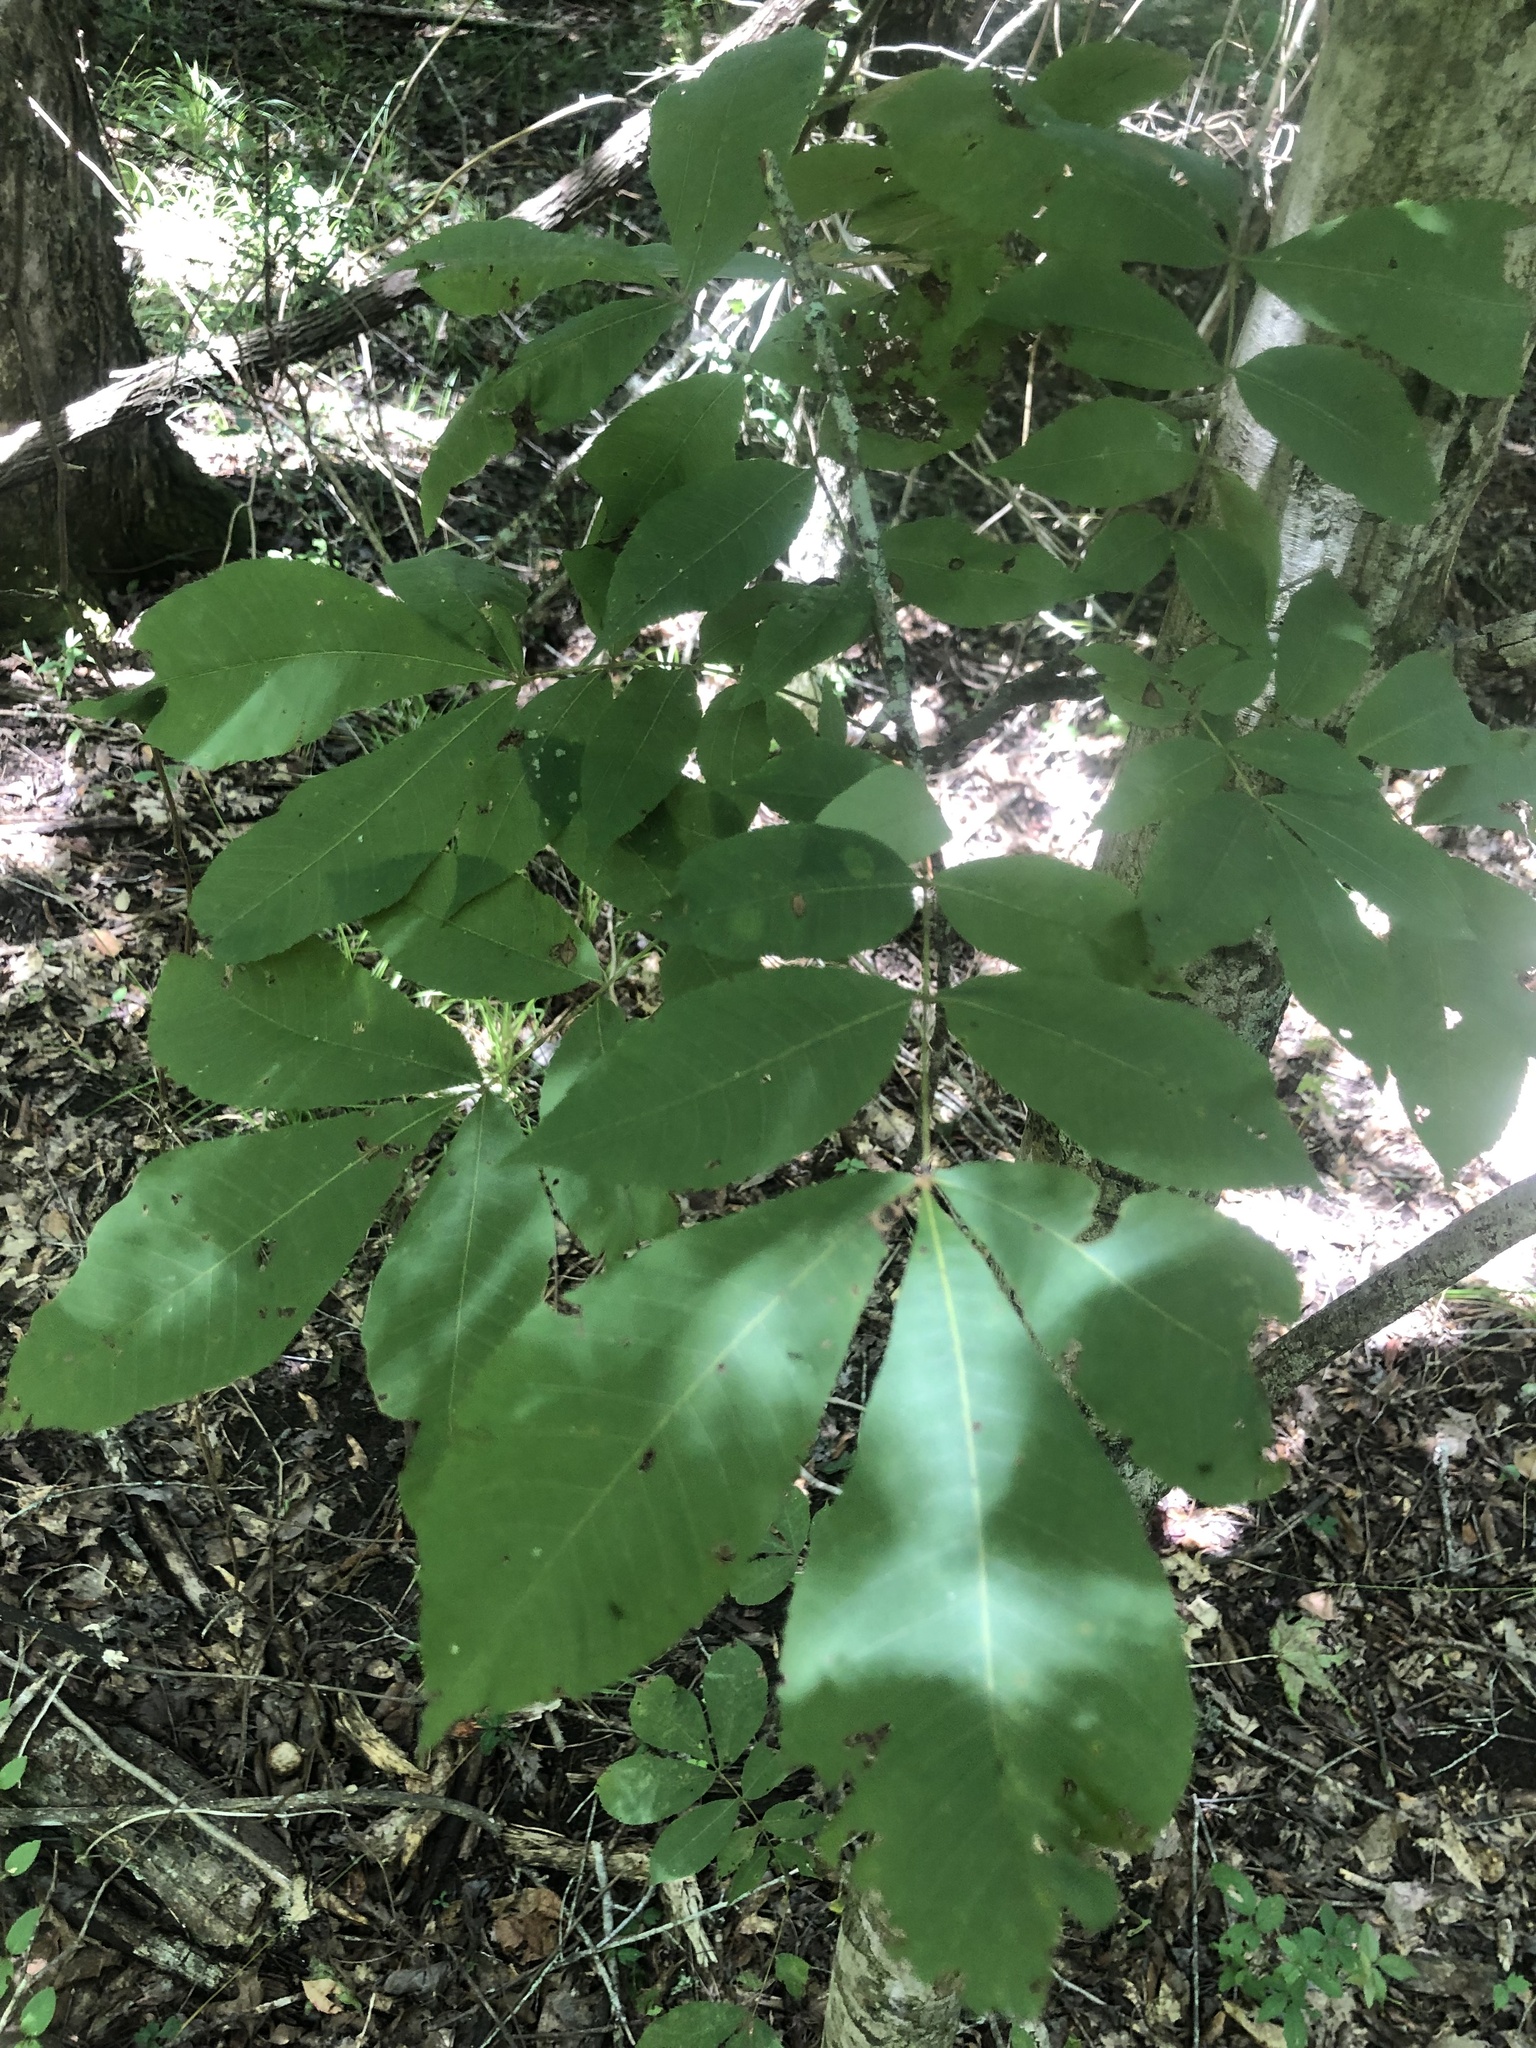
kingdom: Plantae
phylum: Tracheophyta
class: Magnoliopsida
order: Fagales
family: Juglandaceae
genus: Carya
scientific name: Carya myristiciformis
